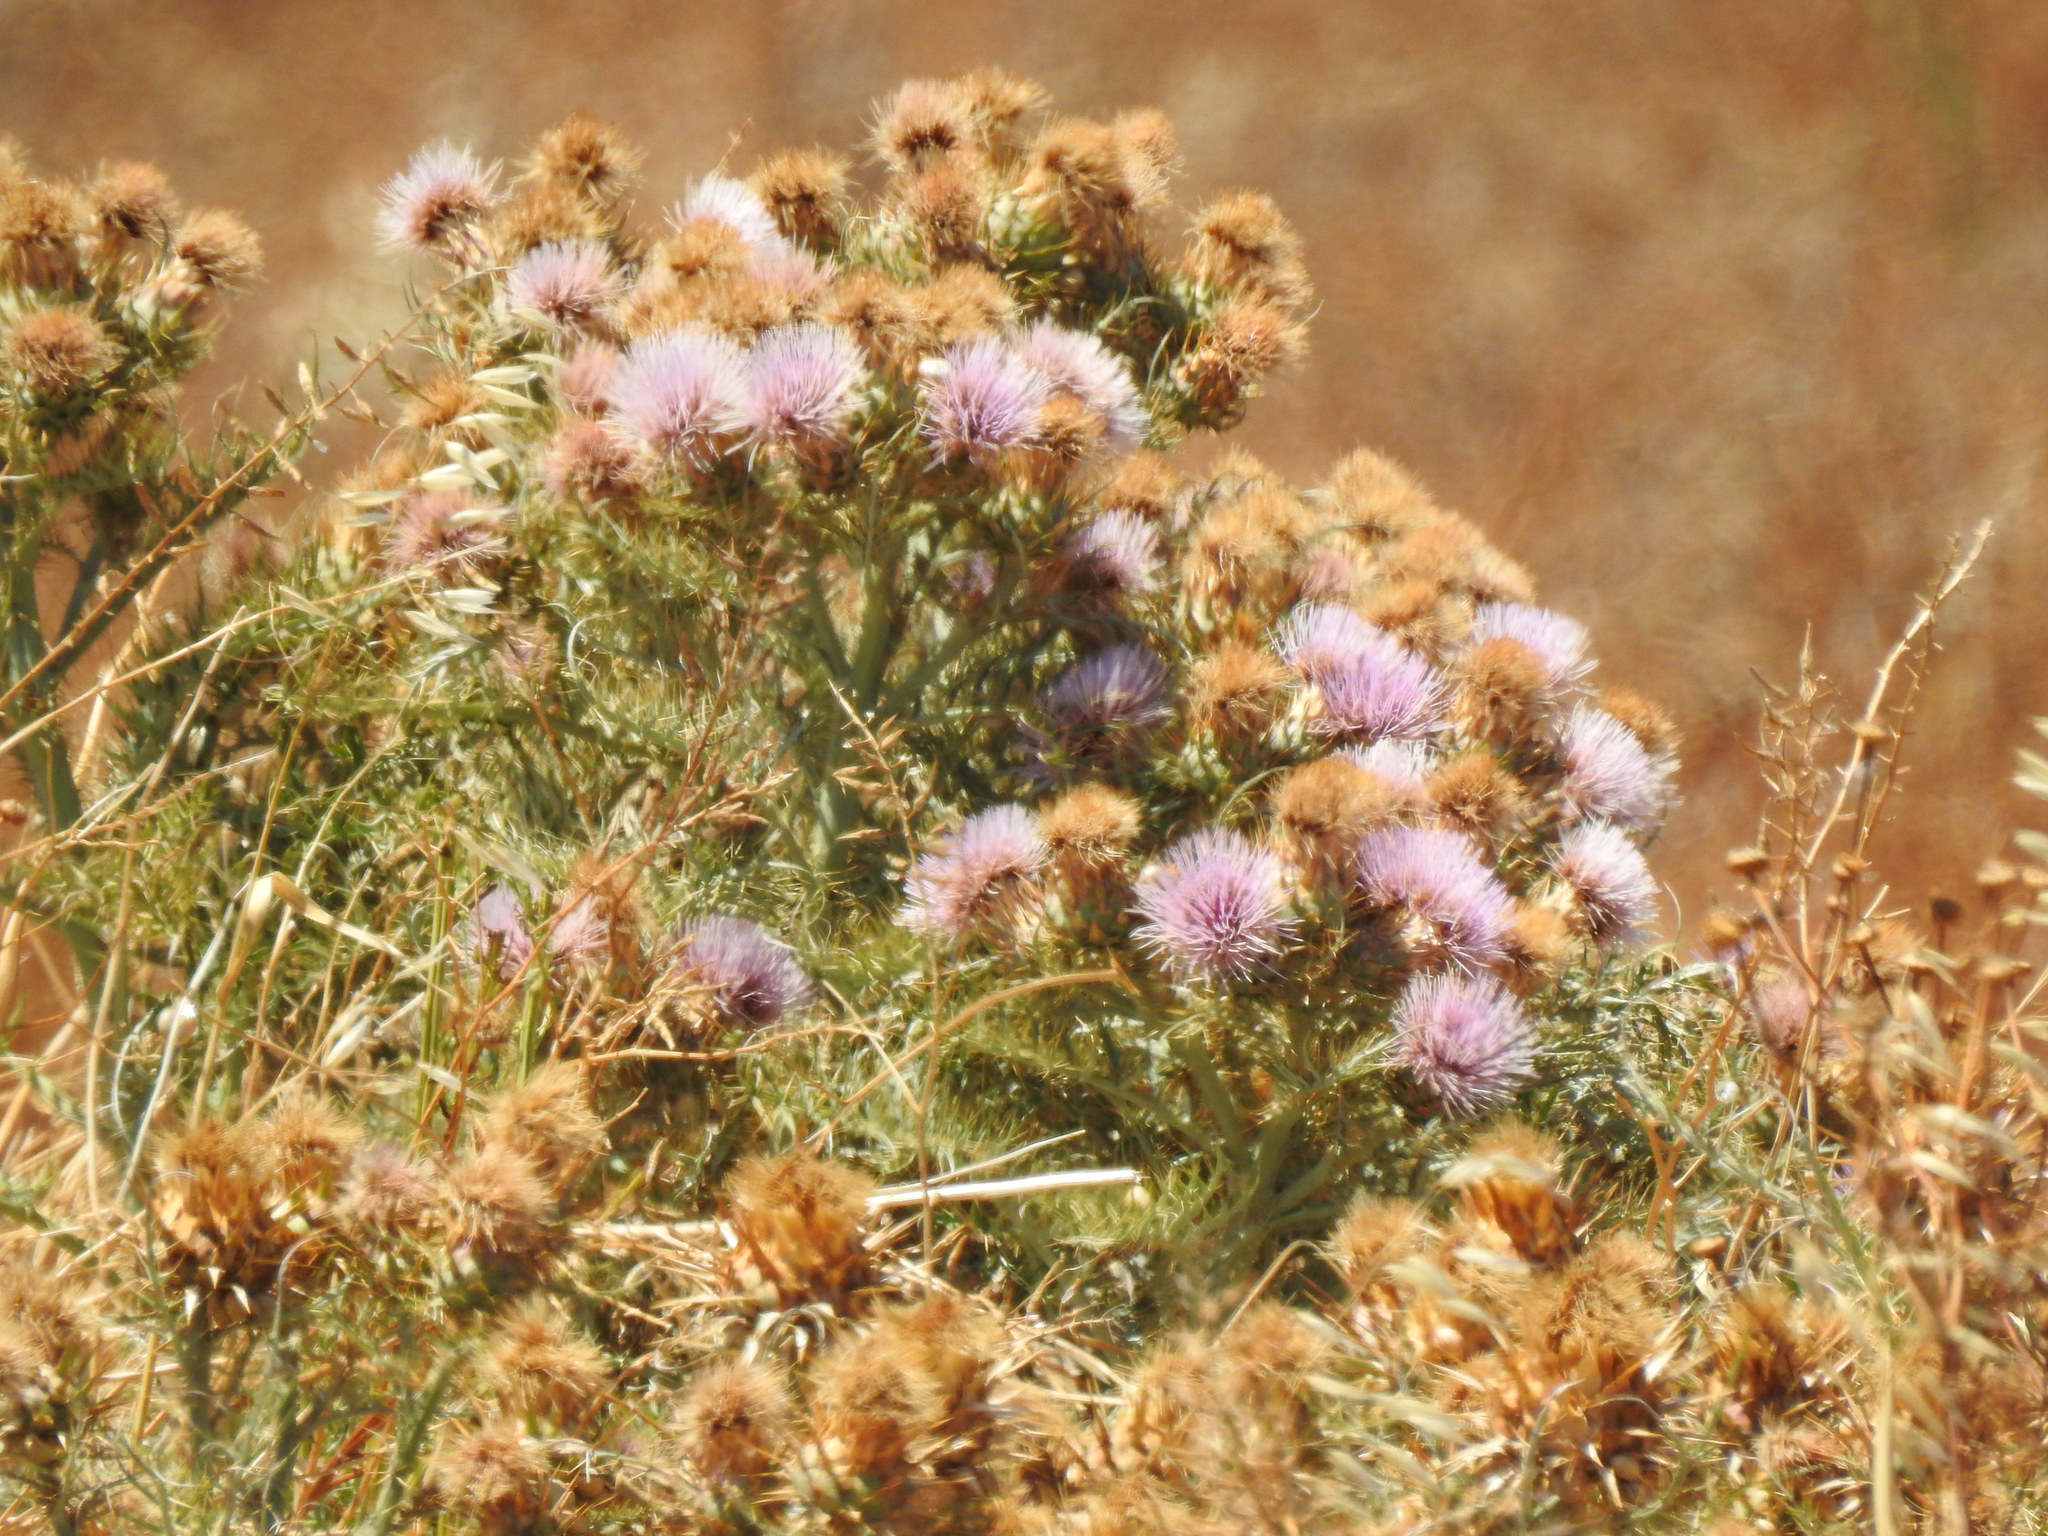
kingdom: Plantae
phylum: Tracheophyta
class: Magnoliopsida
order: Asterales
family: Asteraceae
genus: Cynara
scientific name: Cynara cardunculus
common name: Globe artichoke
